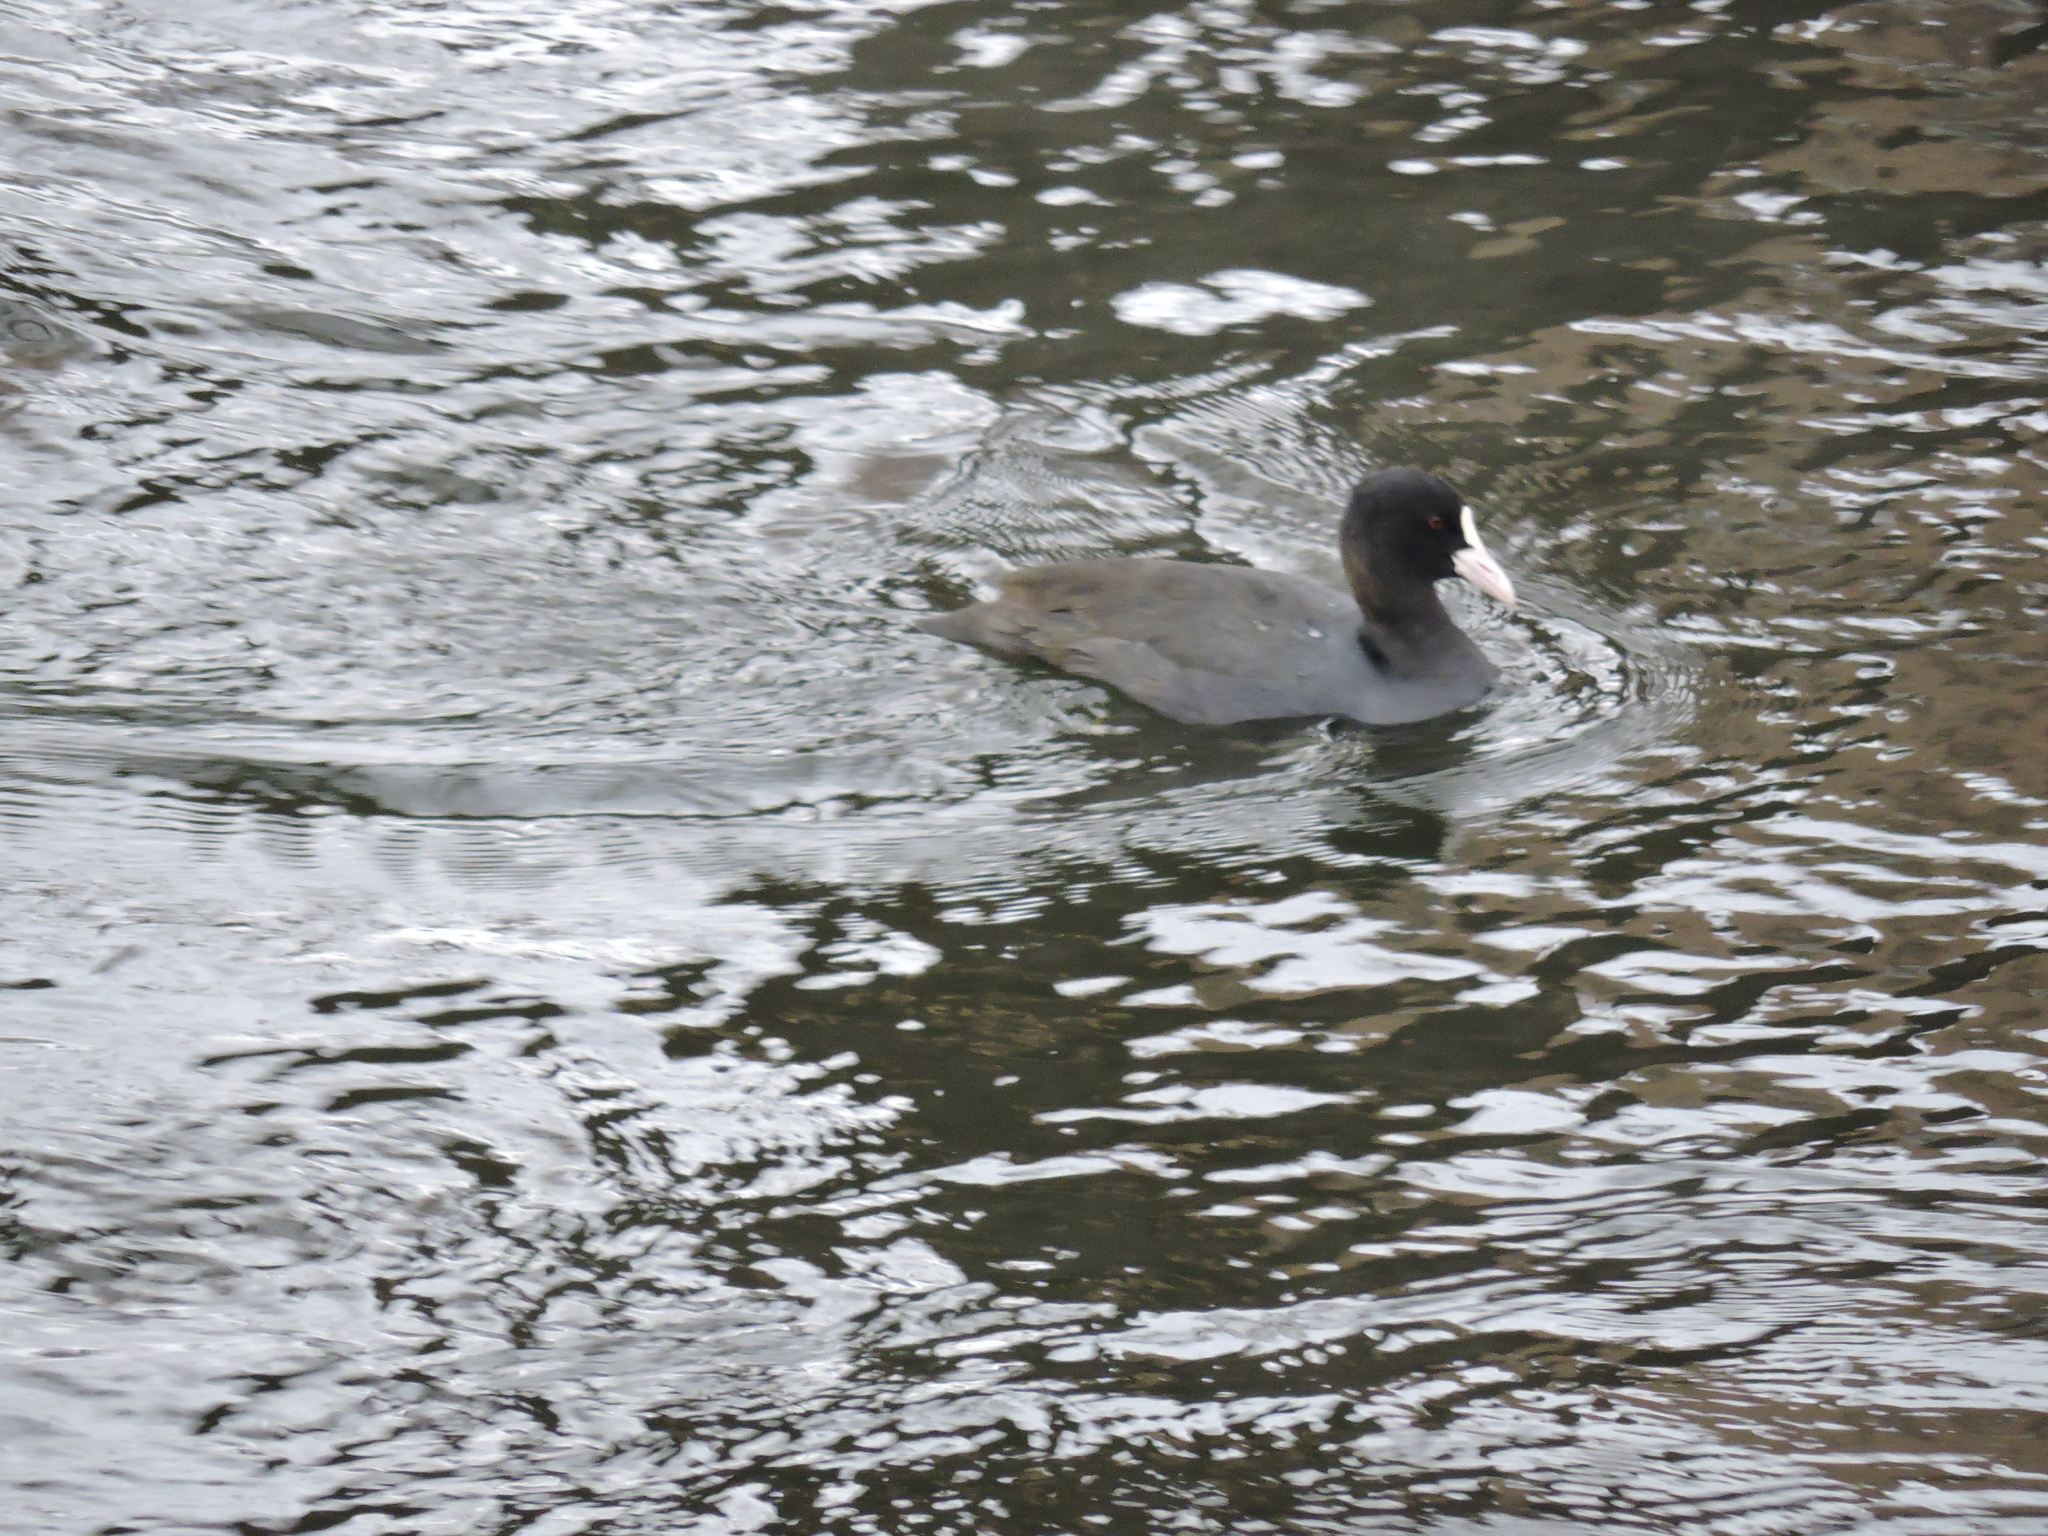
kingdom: Animalia
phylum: Chordata
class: Aves
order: Gruiformes
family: Rallidae
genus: Fulica
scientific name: Fulica atra
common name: Eurasian coot
